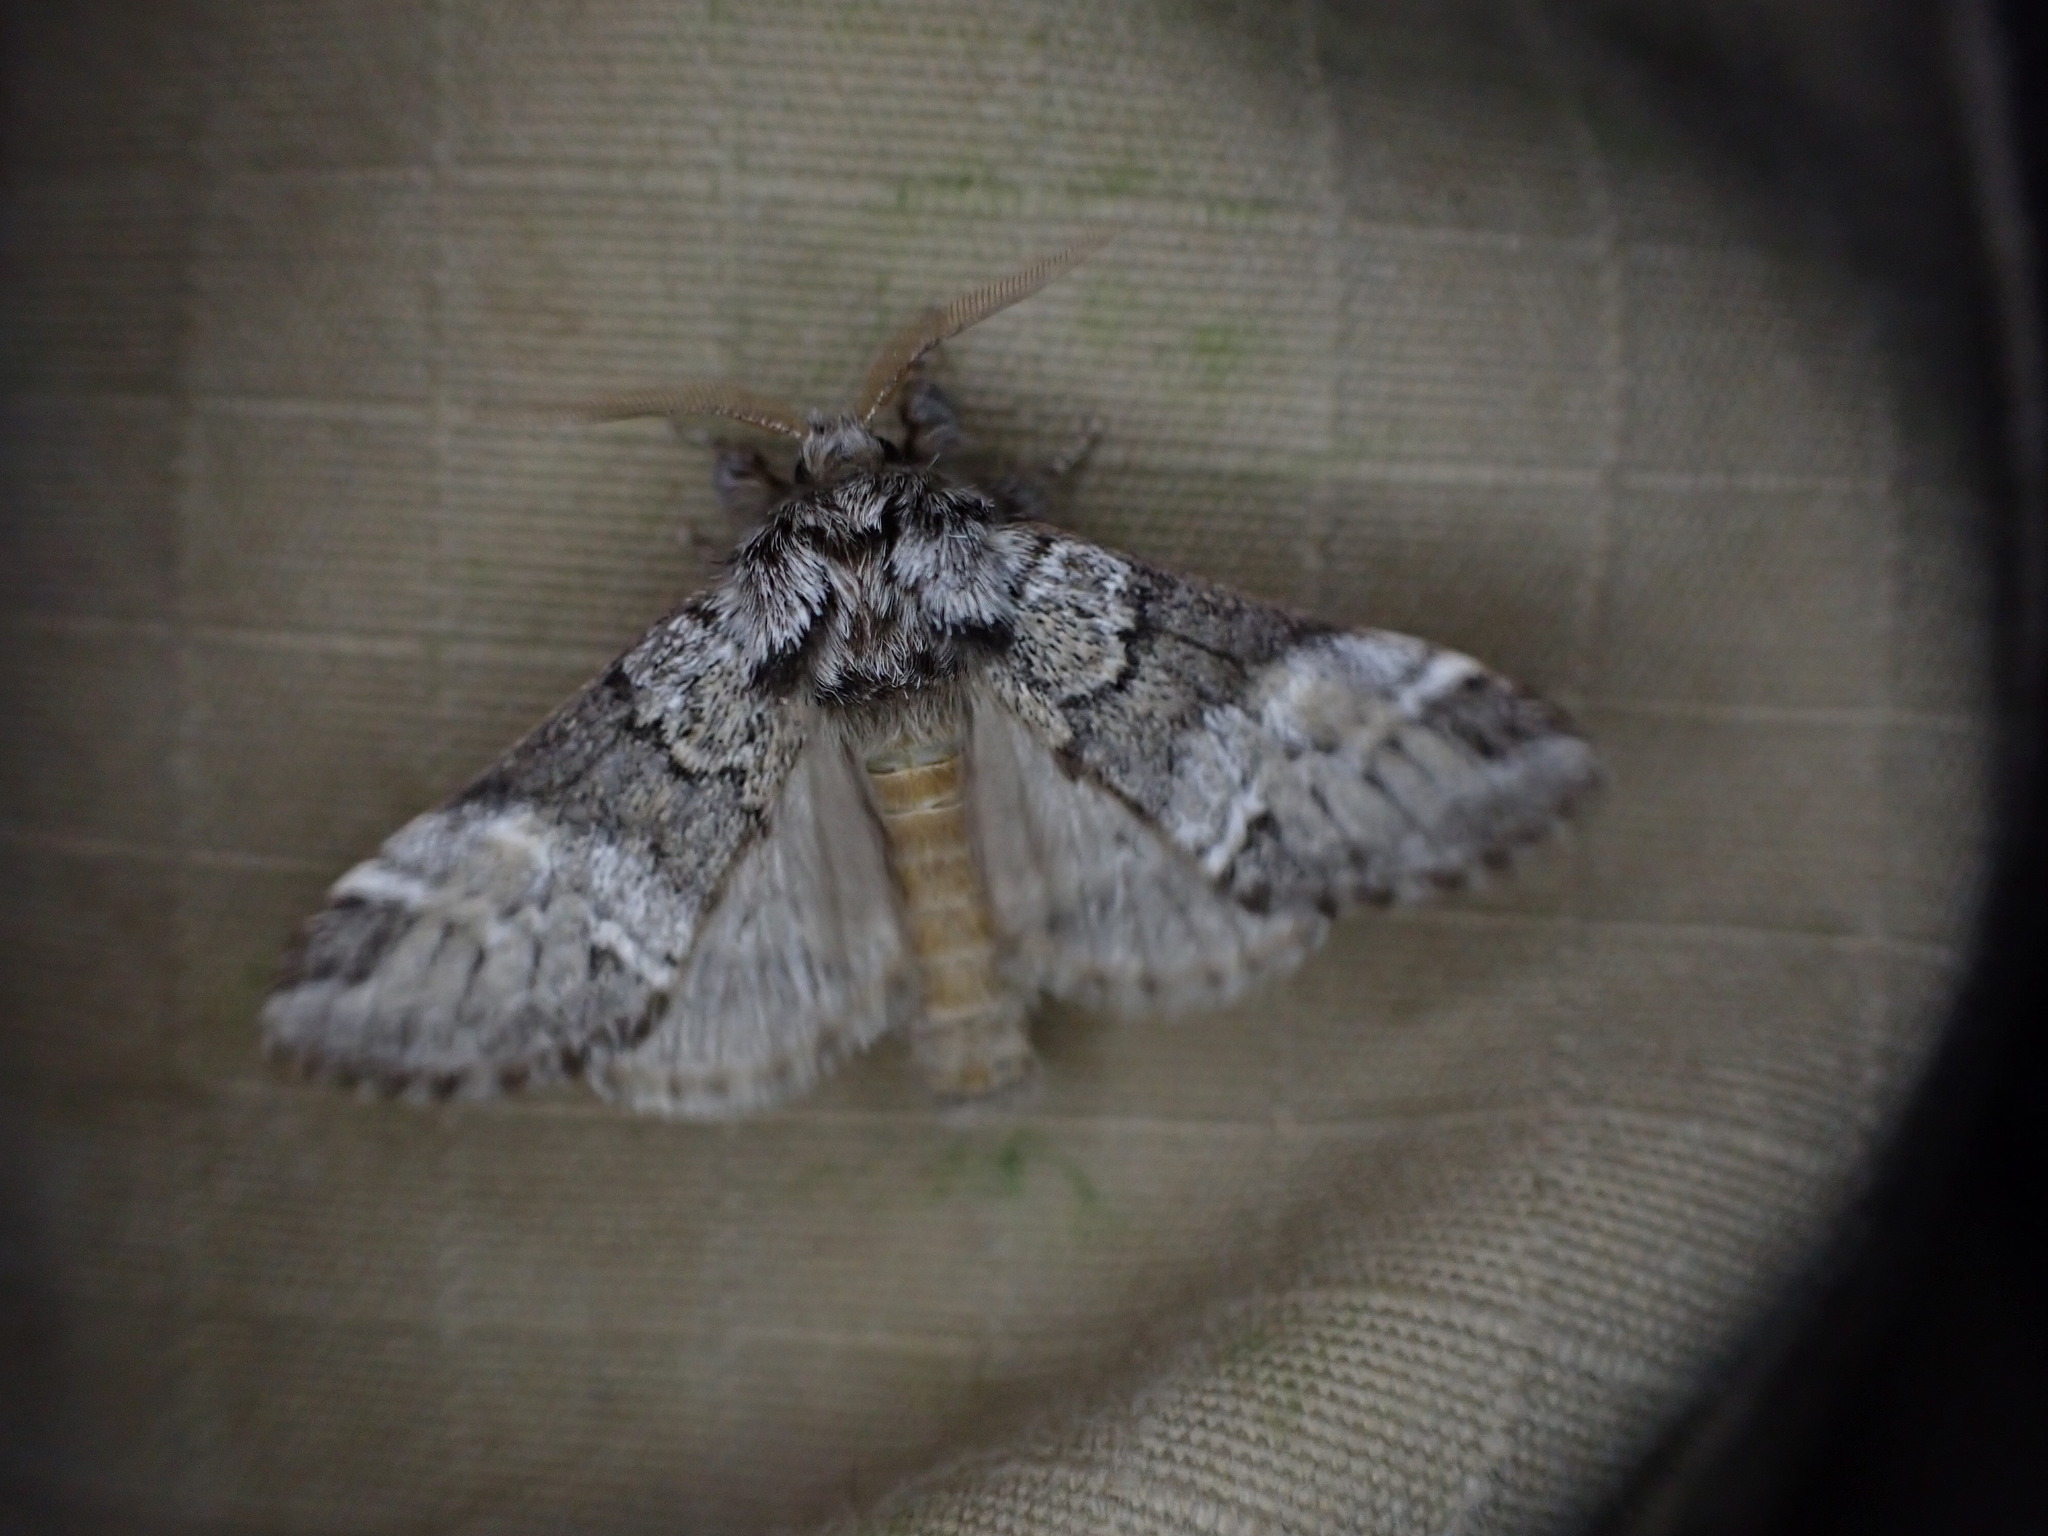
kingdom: Animalia
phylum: Arthropoda
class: Insecta
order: Lepidoptera
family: Notodontidae
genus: Drymonia
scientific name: Drymonia dodonaea
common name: Marbled brown
